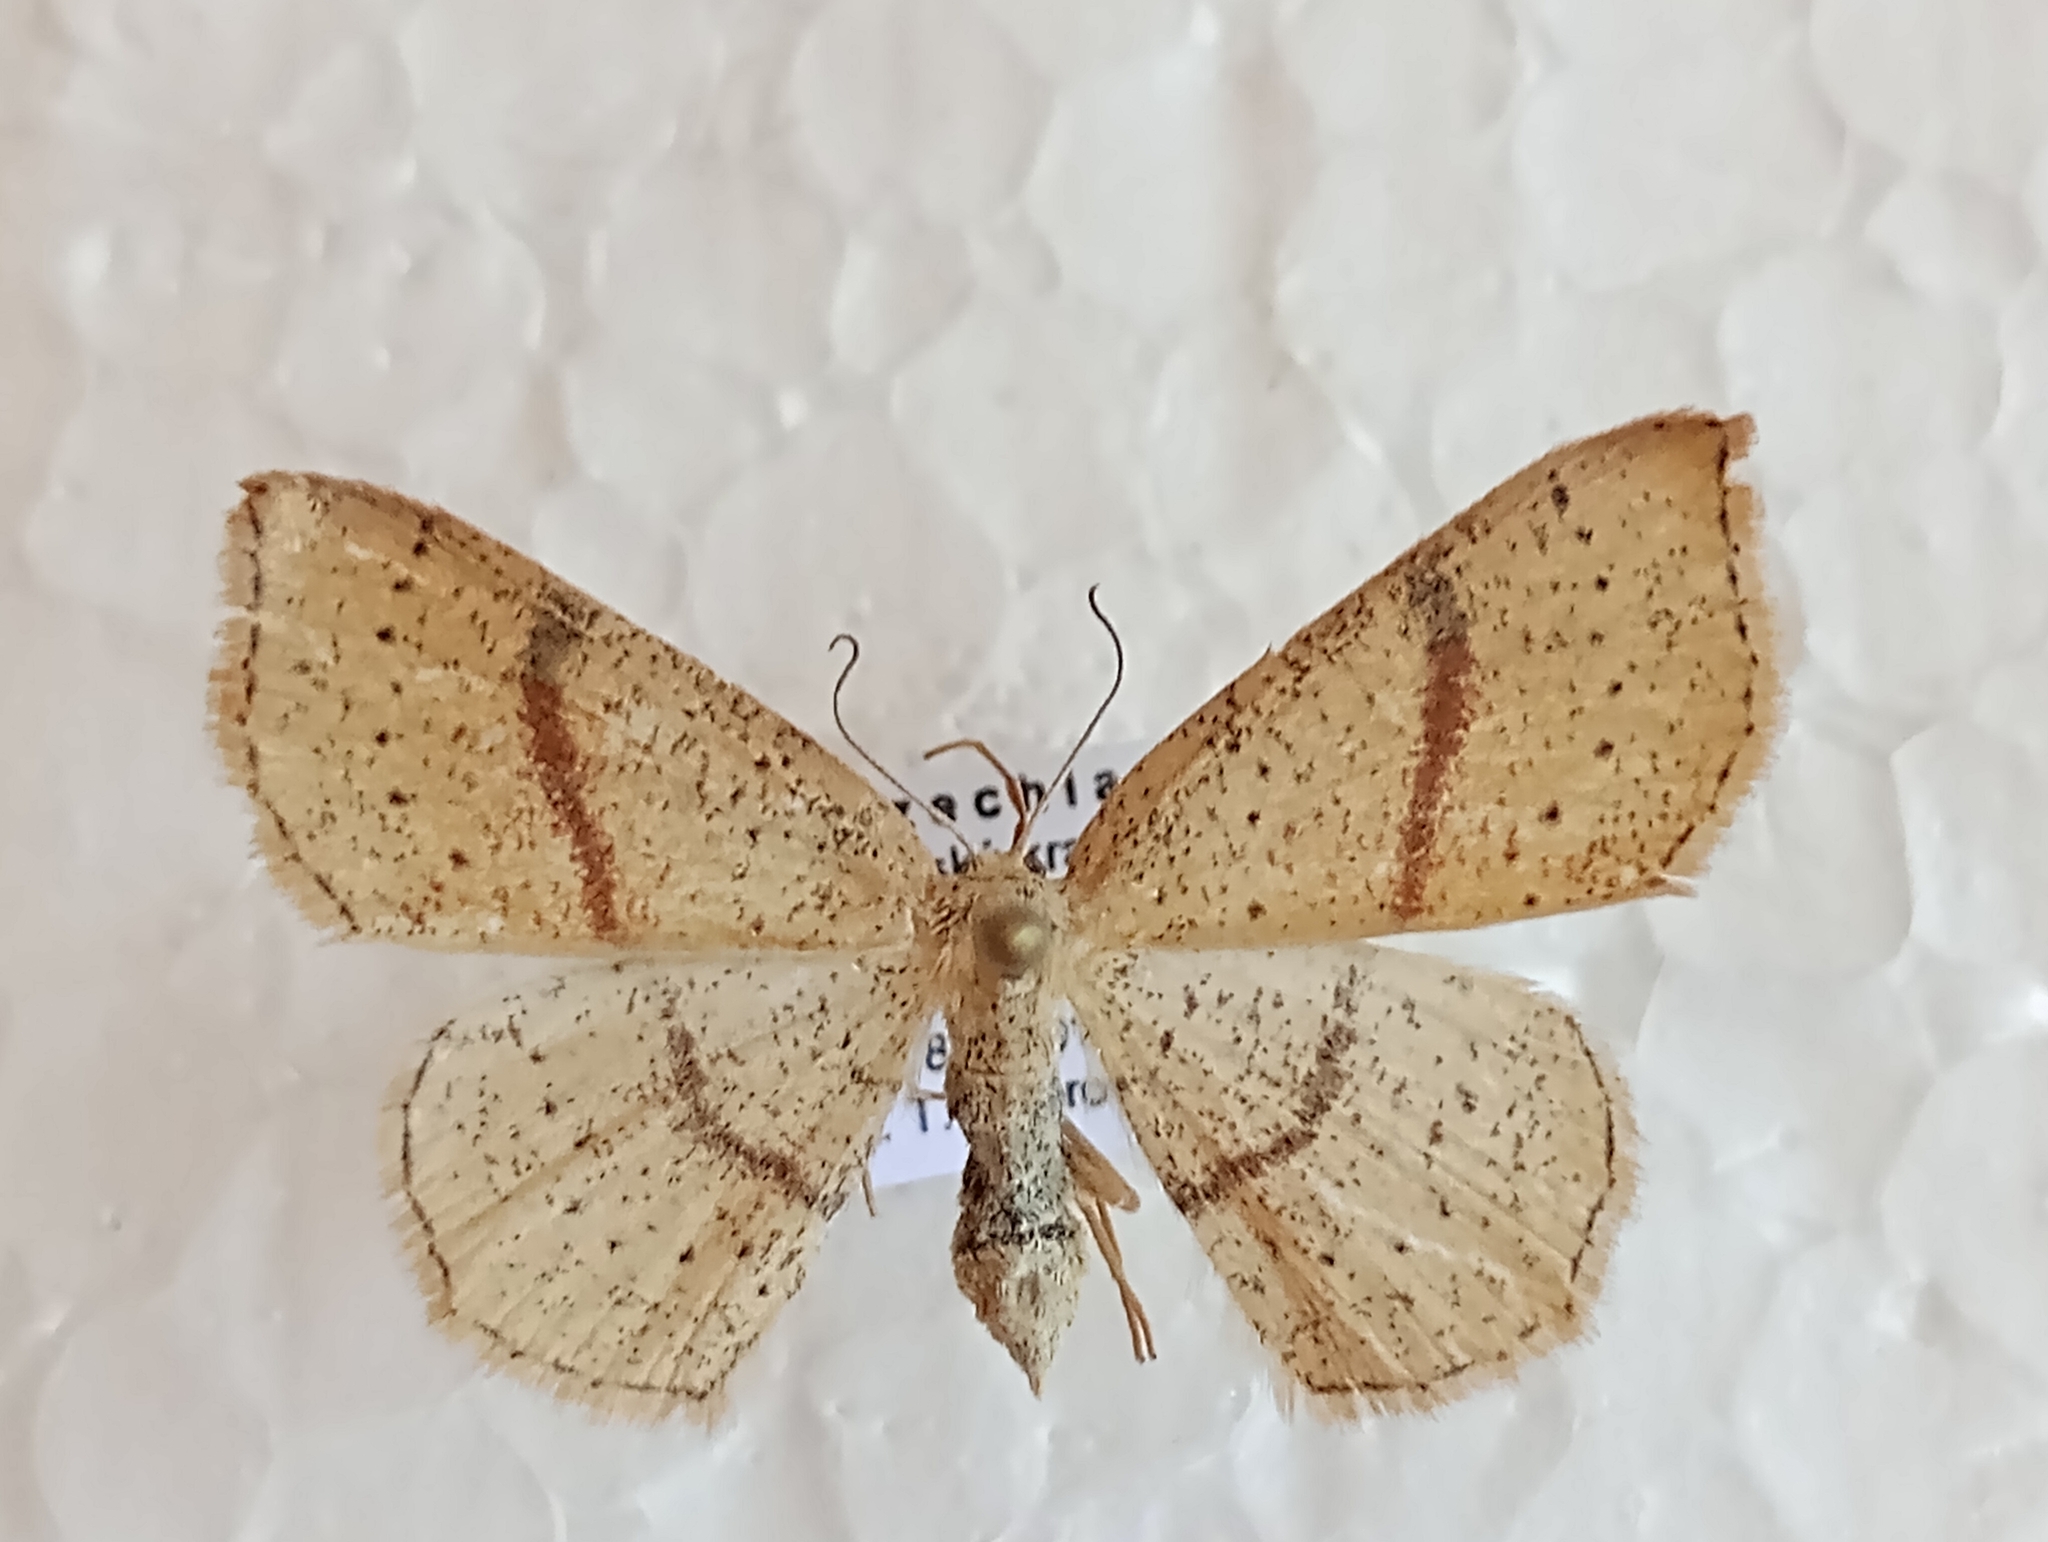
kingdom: Animalia
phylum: Arthropoda
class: Insecta
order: Lepidoptera
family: Geometridae
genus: Cyclophora
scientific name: Cyclophora punctaria
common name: Maiden's blush
